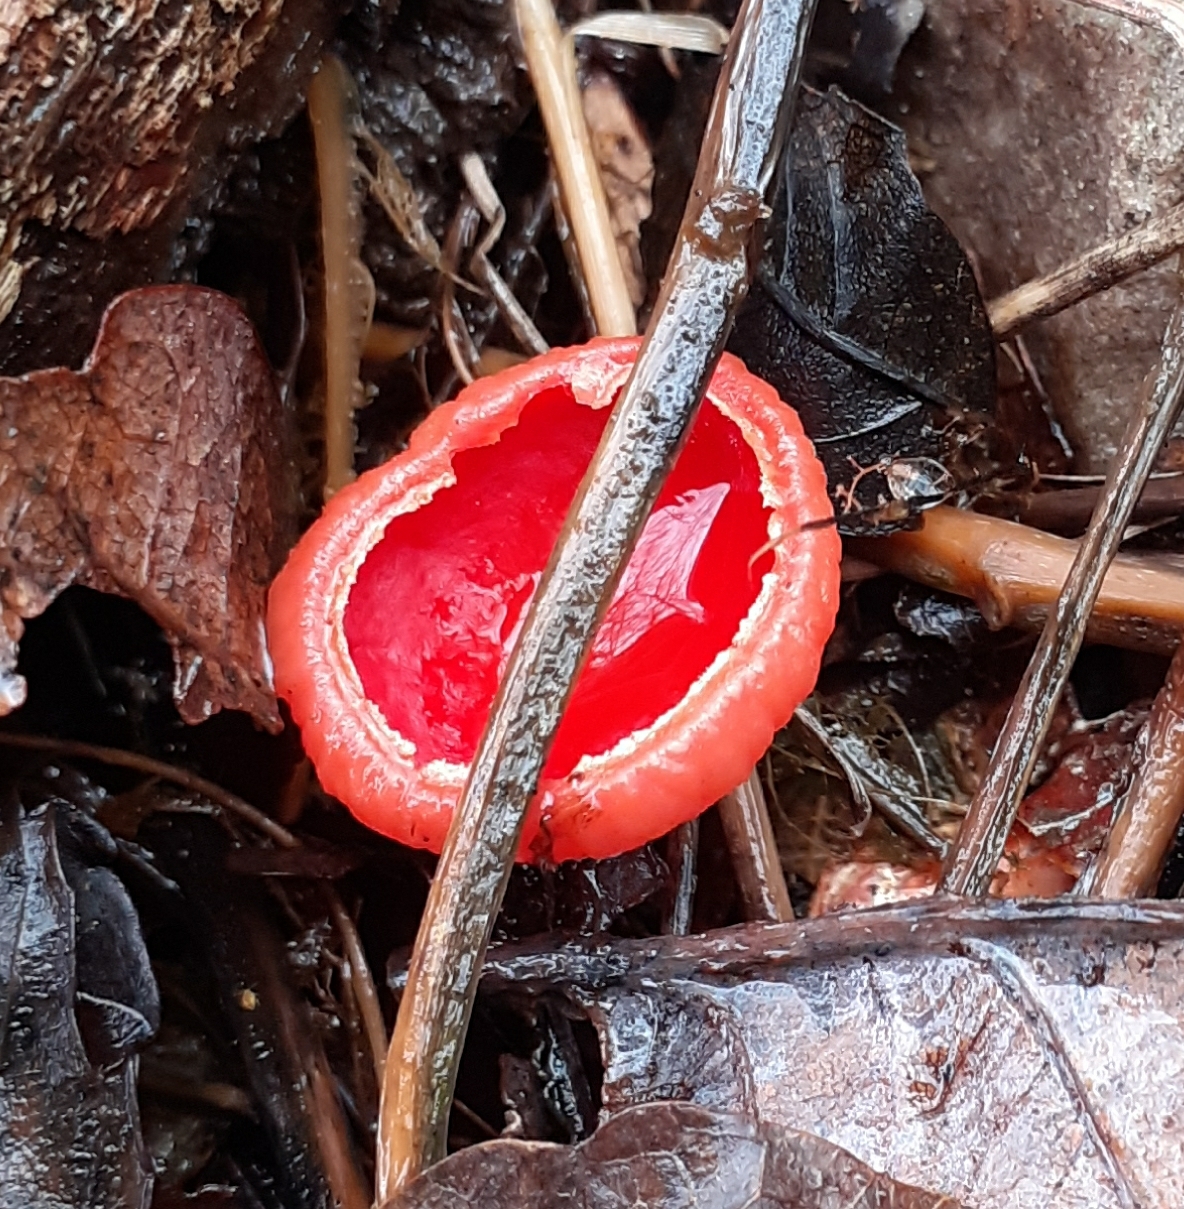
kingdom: Fungi
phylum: Ascomycota
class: Pezizomycetes
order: Pezizales
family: Sarcoscyphaceae
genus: Sarcoscypha
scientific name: Sarcoscypha
